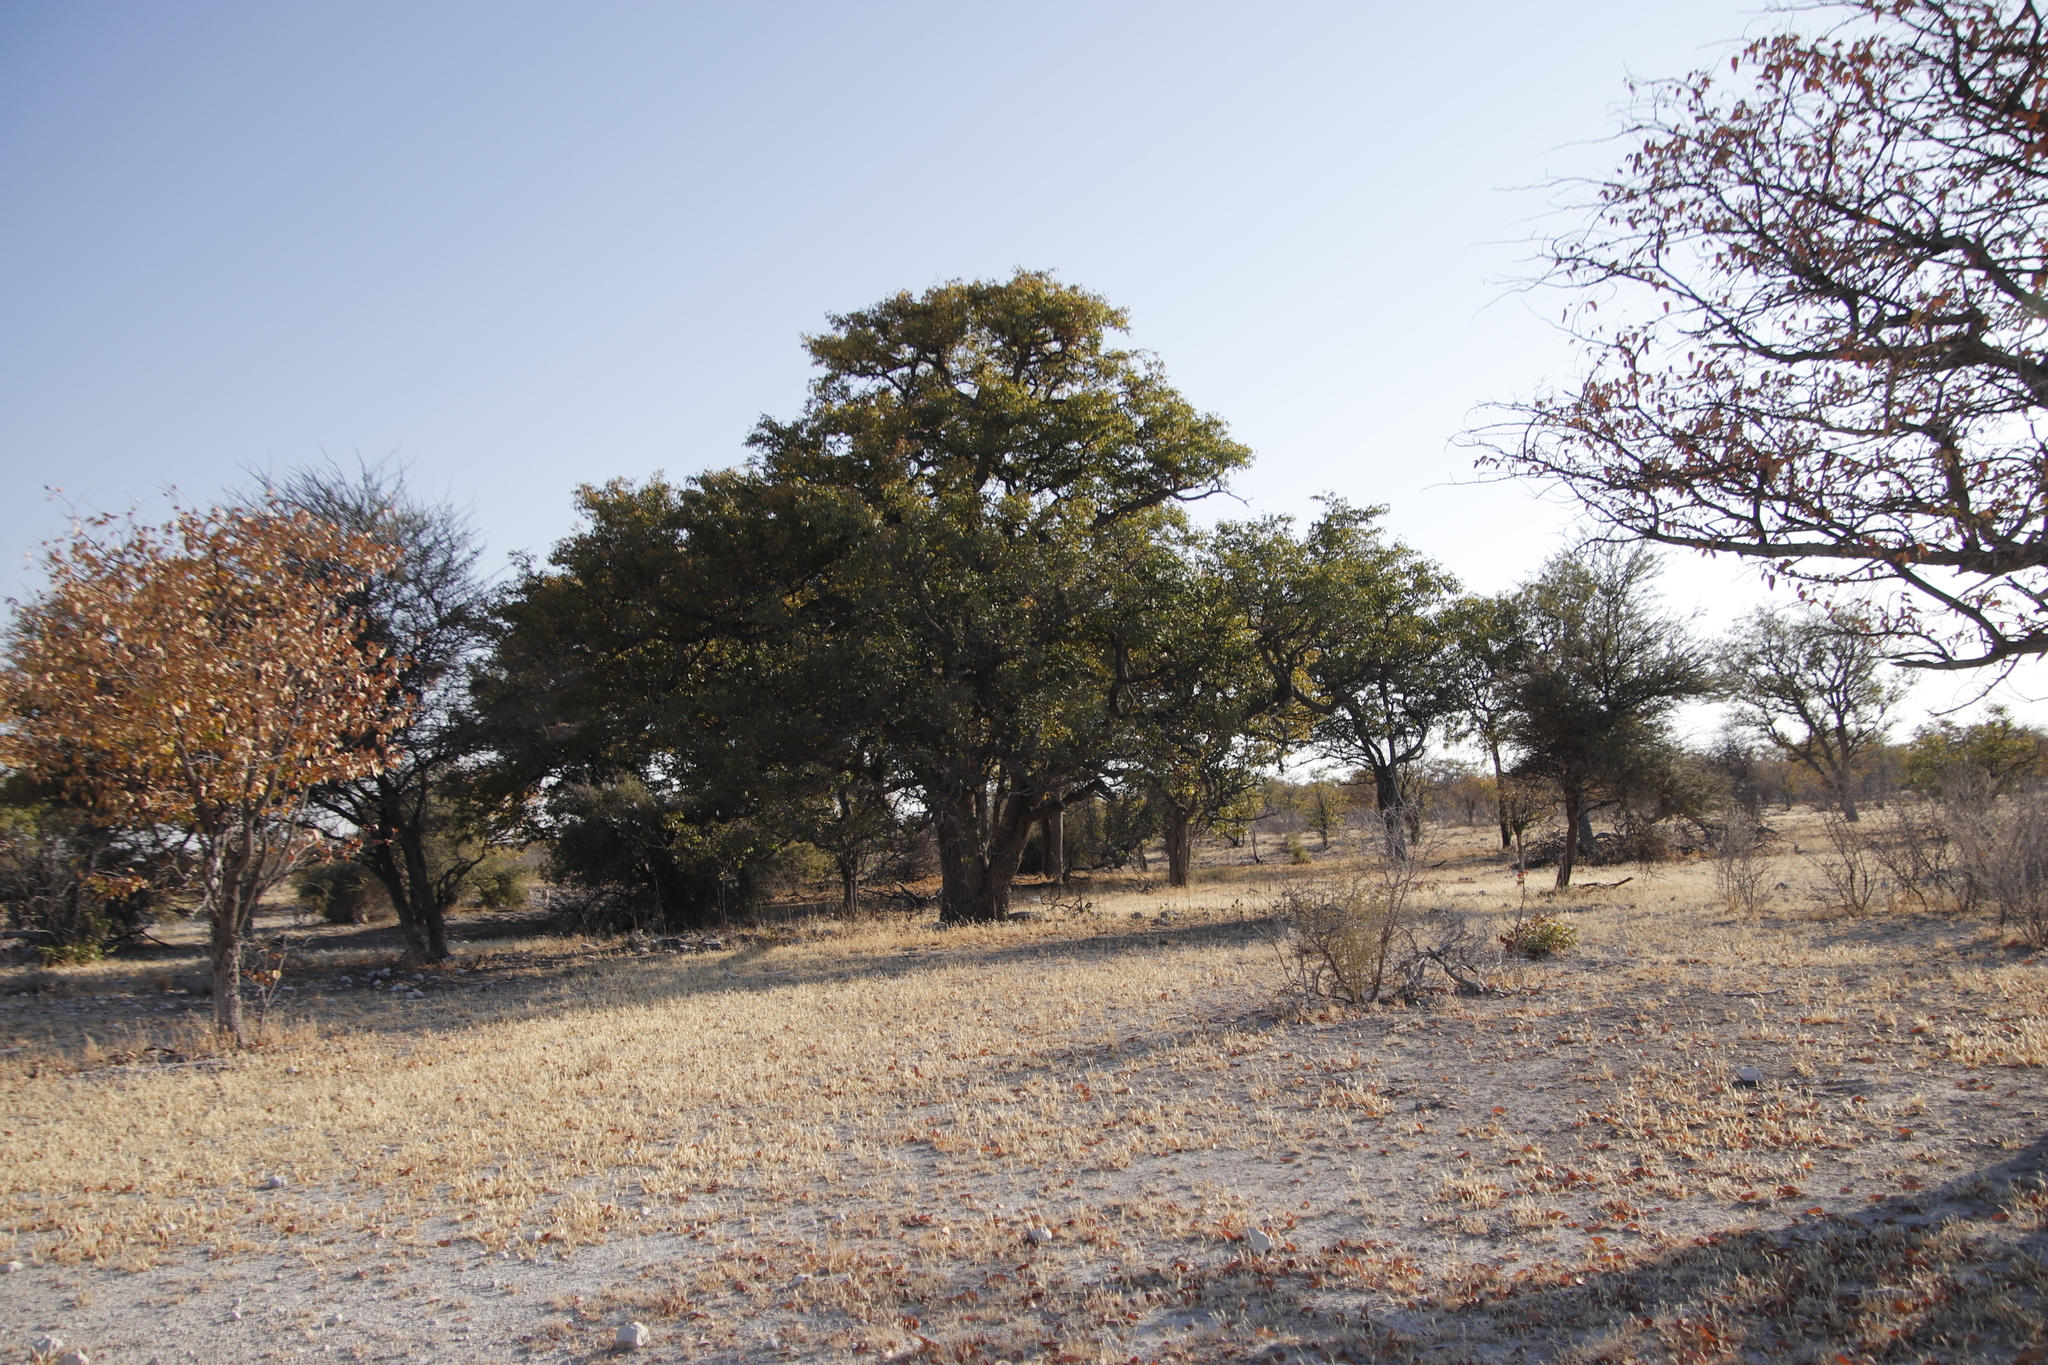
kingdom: Plantae
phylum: Tracheophyta
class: Magnoliopsida
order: Fabales
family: Fabaceae
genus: Colophospermum
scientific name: Colophospermum mopane
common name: Mopane
